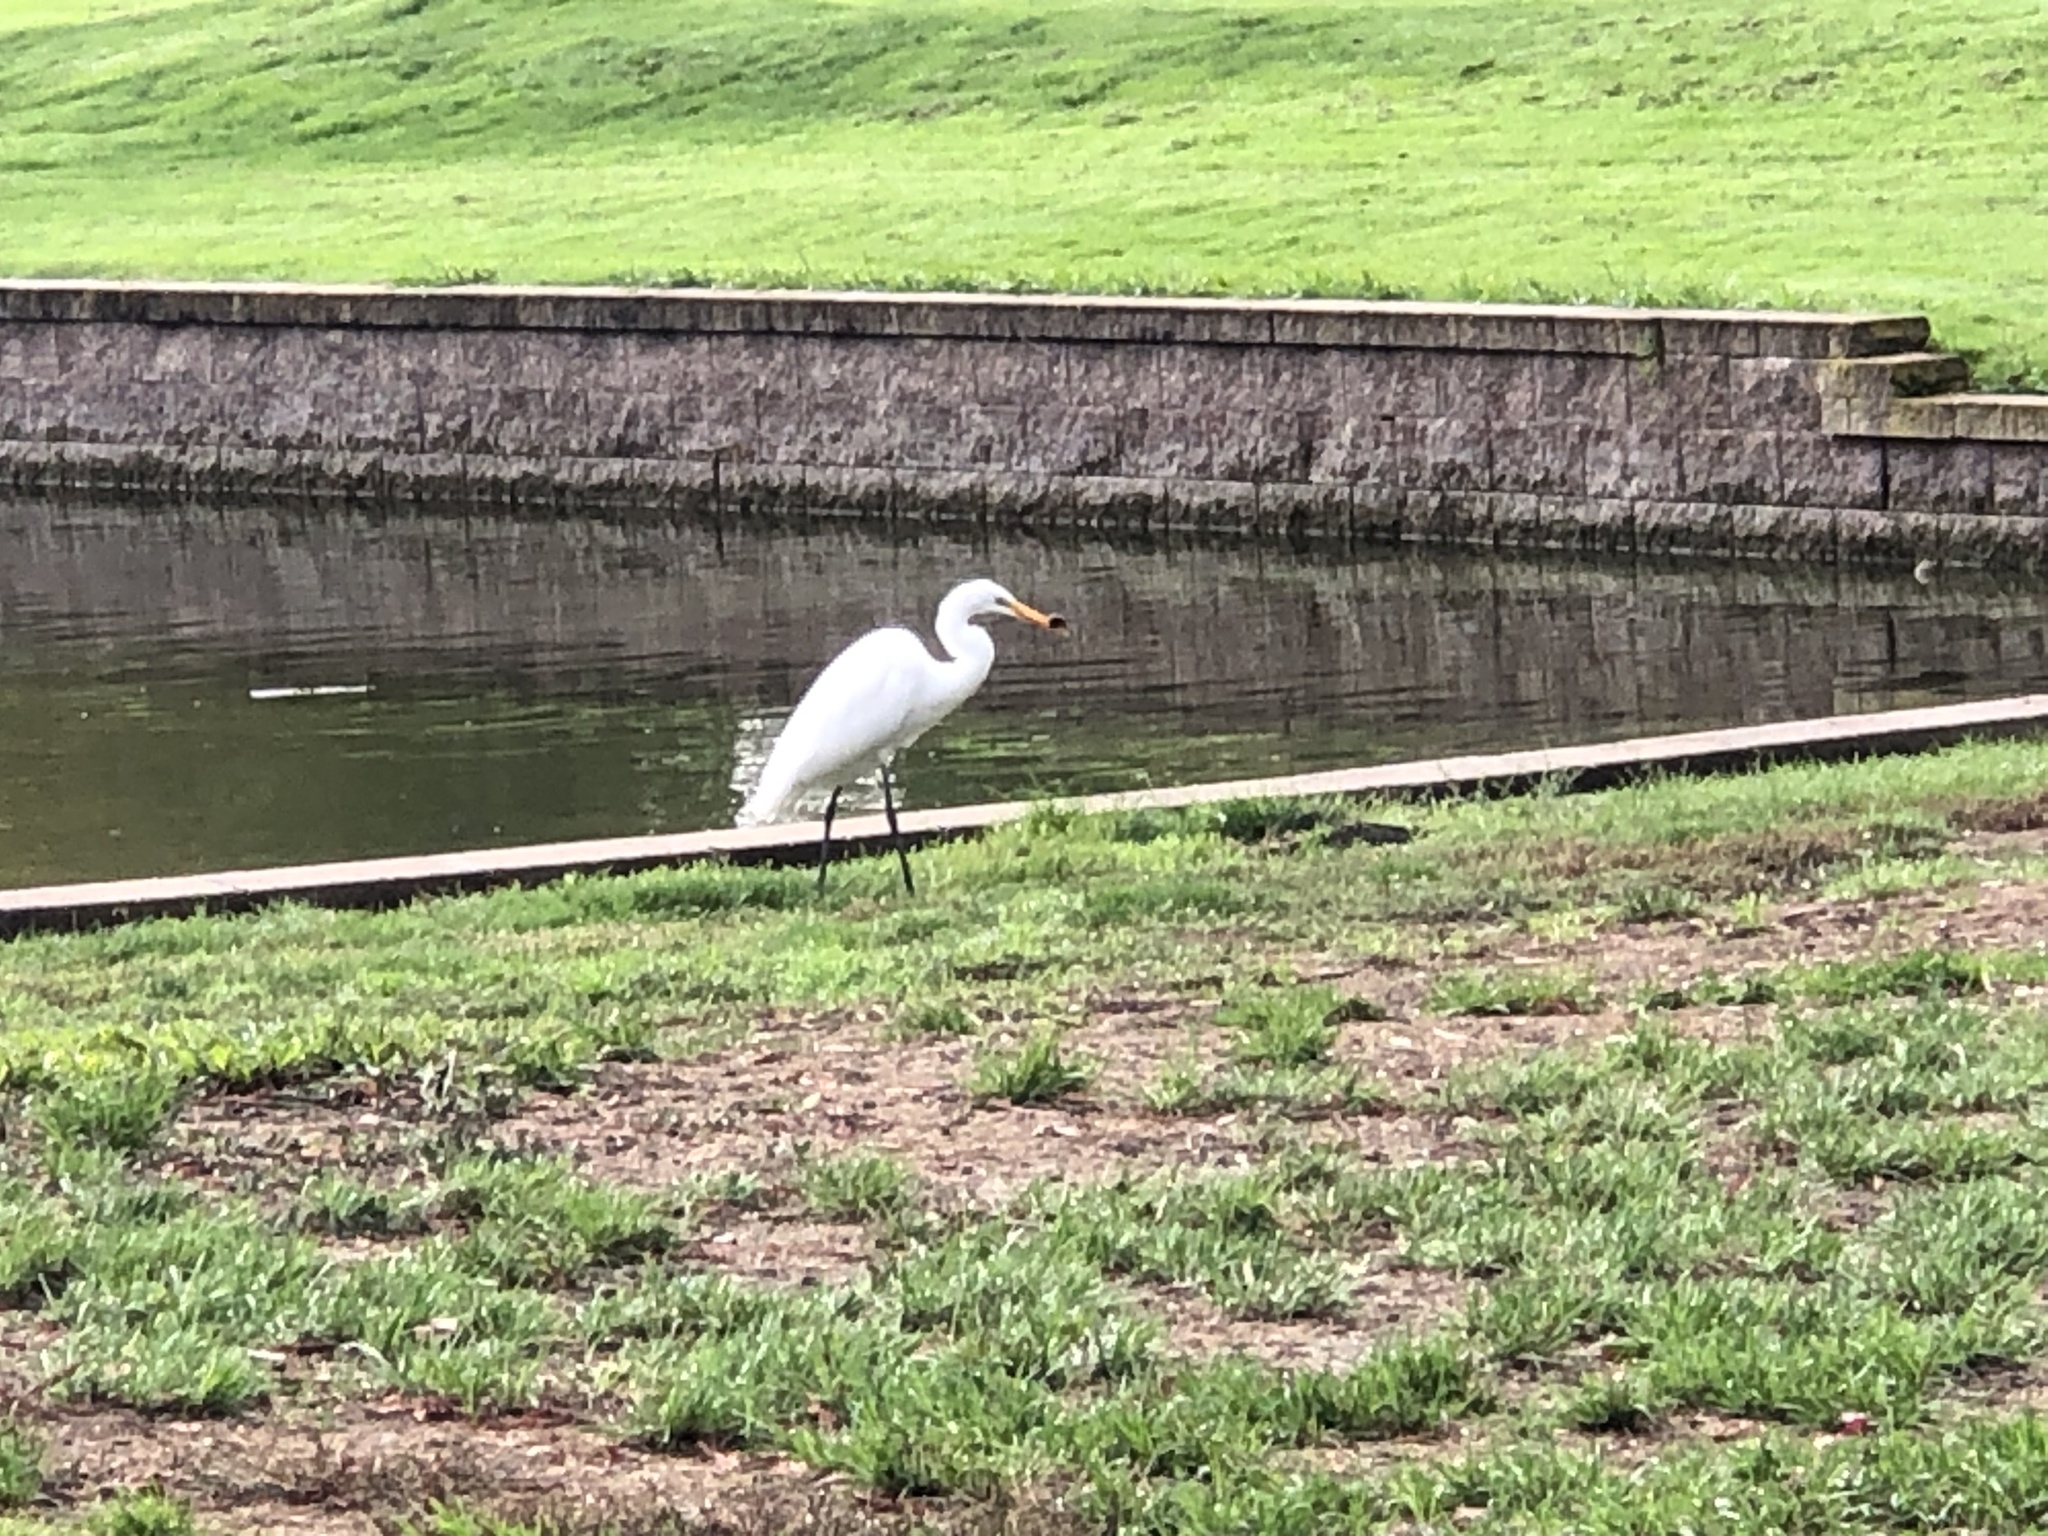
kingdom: Animalia
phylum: Chordata
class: Aves
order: Pelecaniformes
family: Ardeidae
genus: Ardea
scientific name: Ardea alba
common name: Great egret
